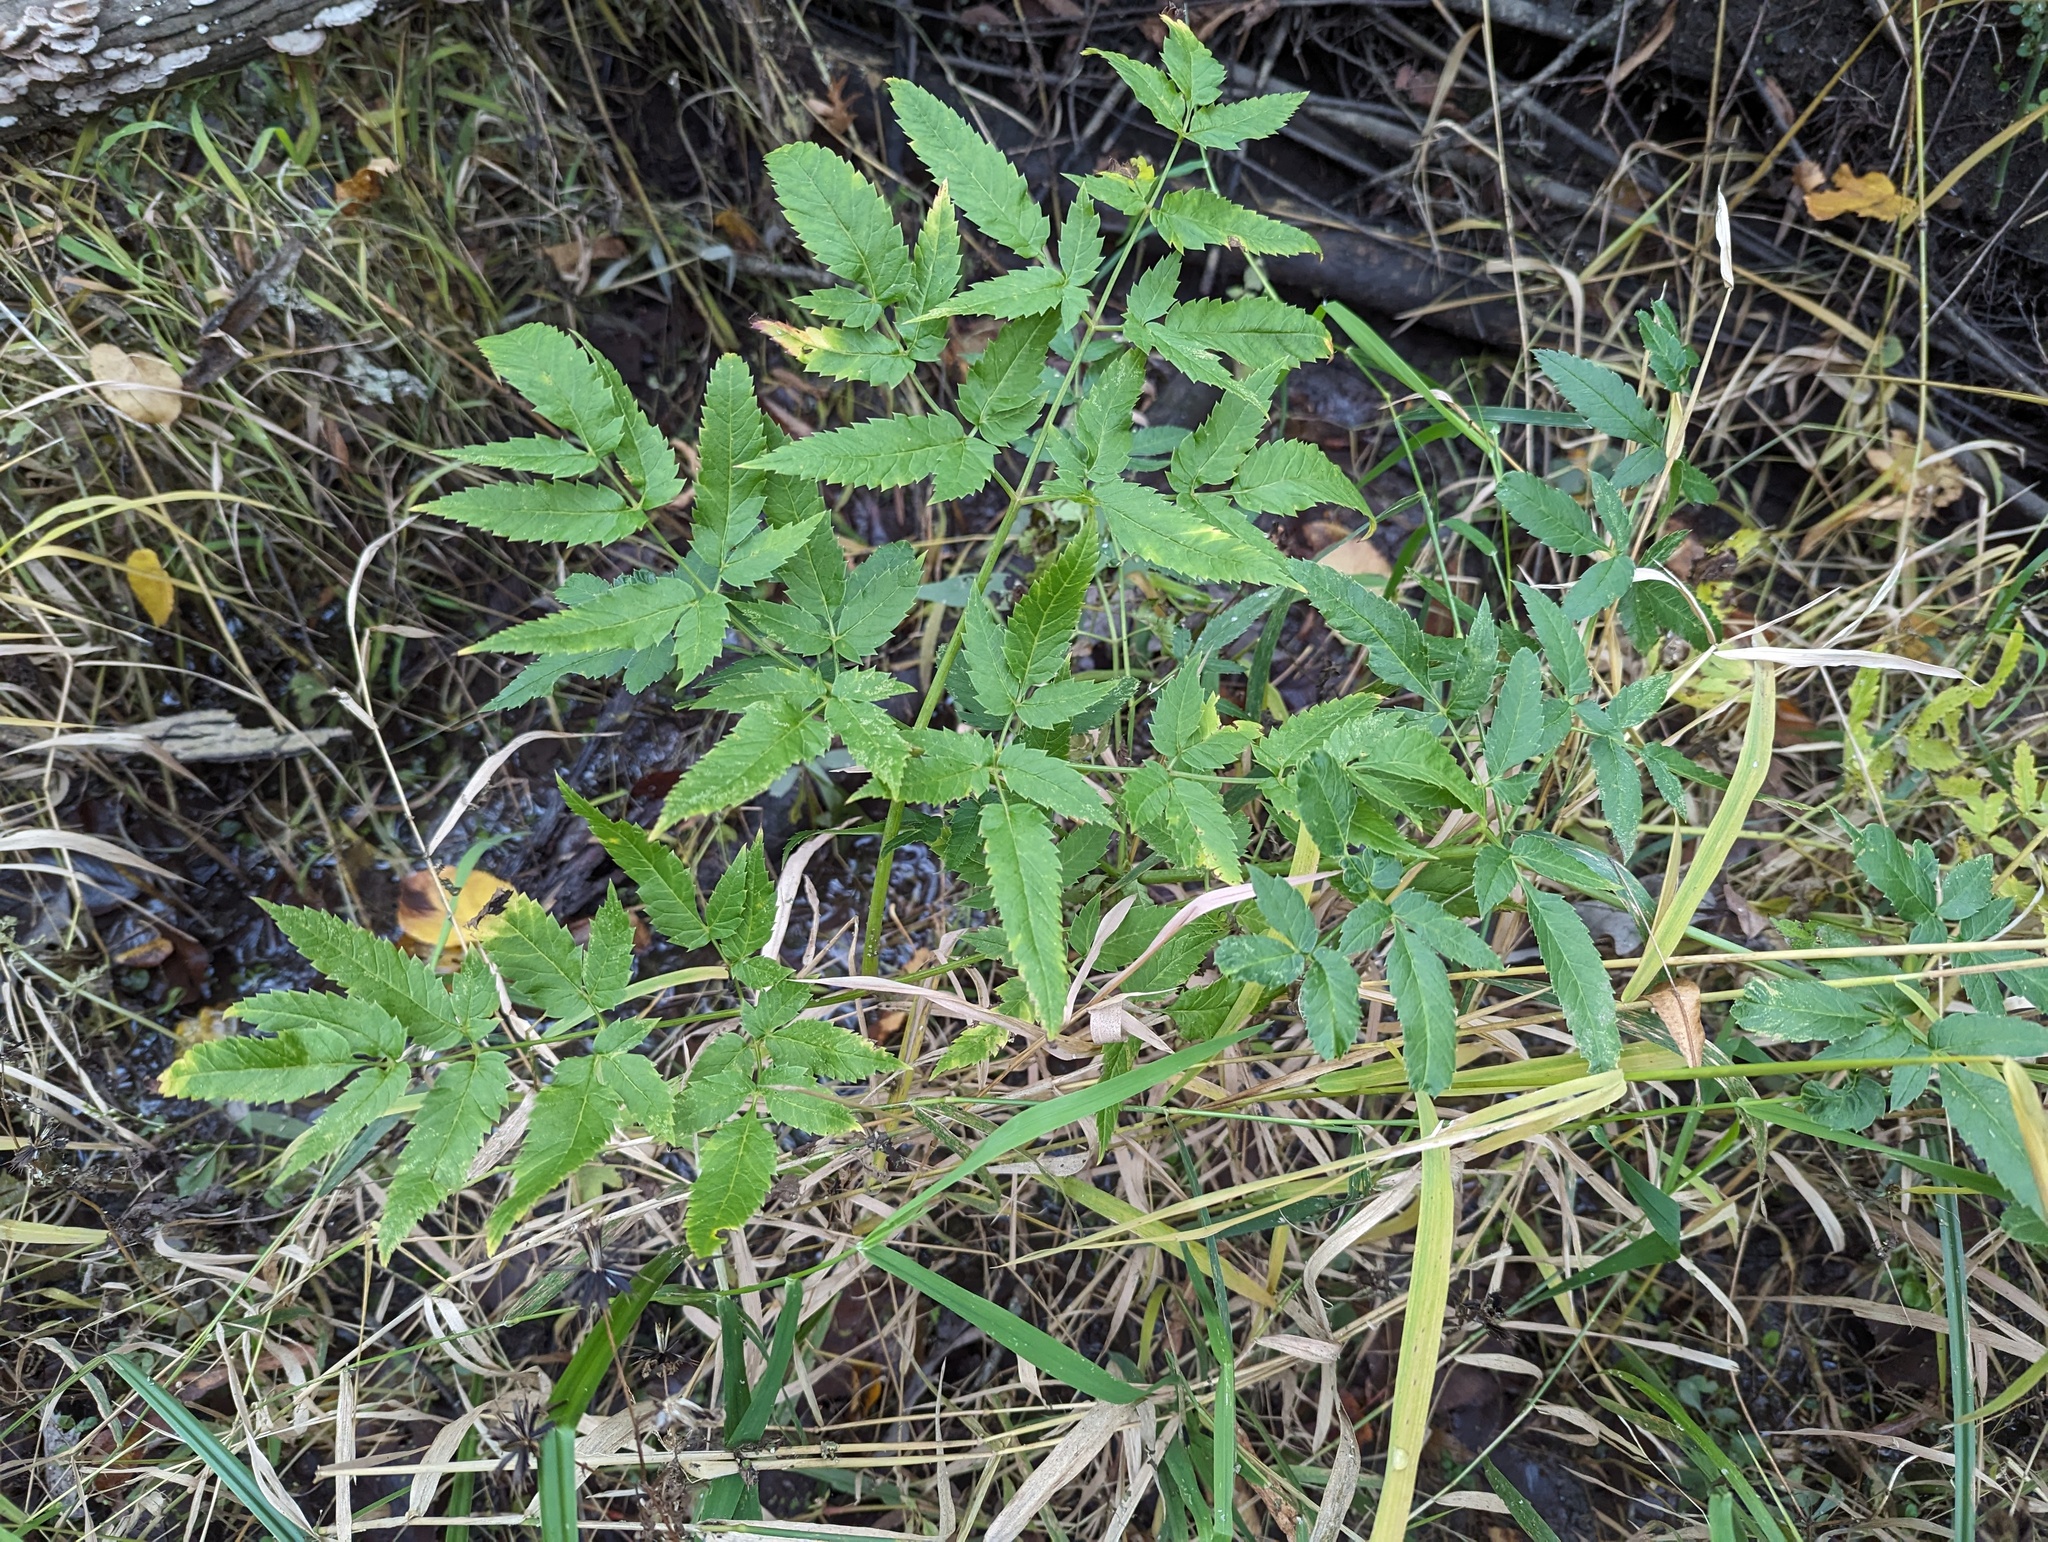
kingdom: Plantae
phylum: Tracheophyta
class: Magnoliopsida
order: Apiales
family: Apiaceae
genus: Cicuta
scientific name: Cicuta maculata
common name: Spotted cowbane
